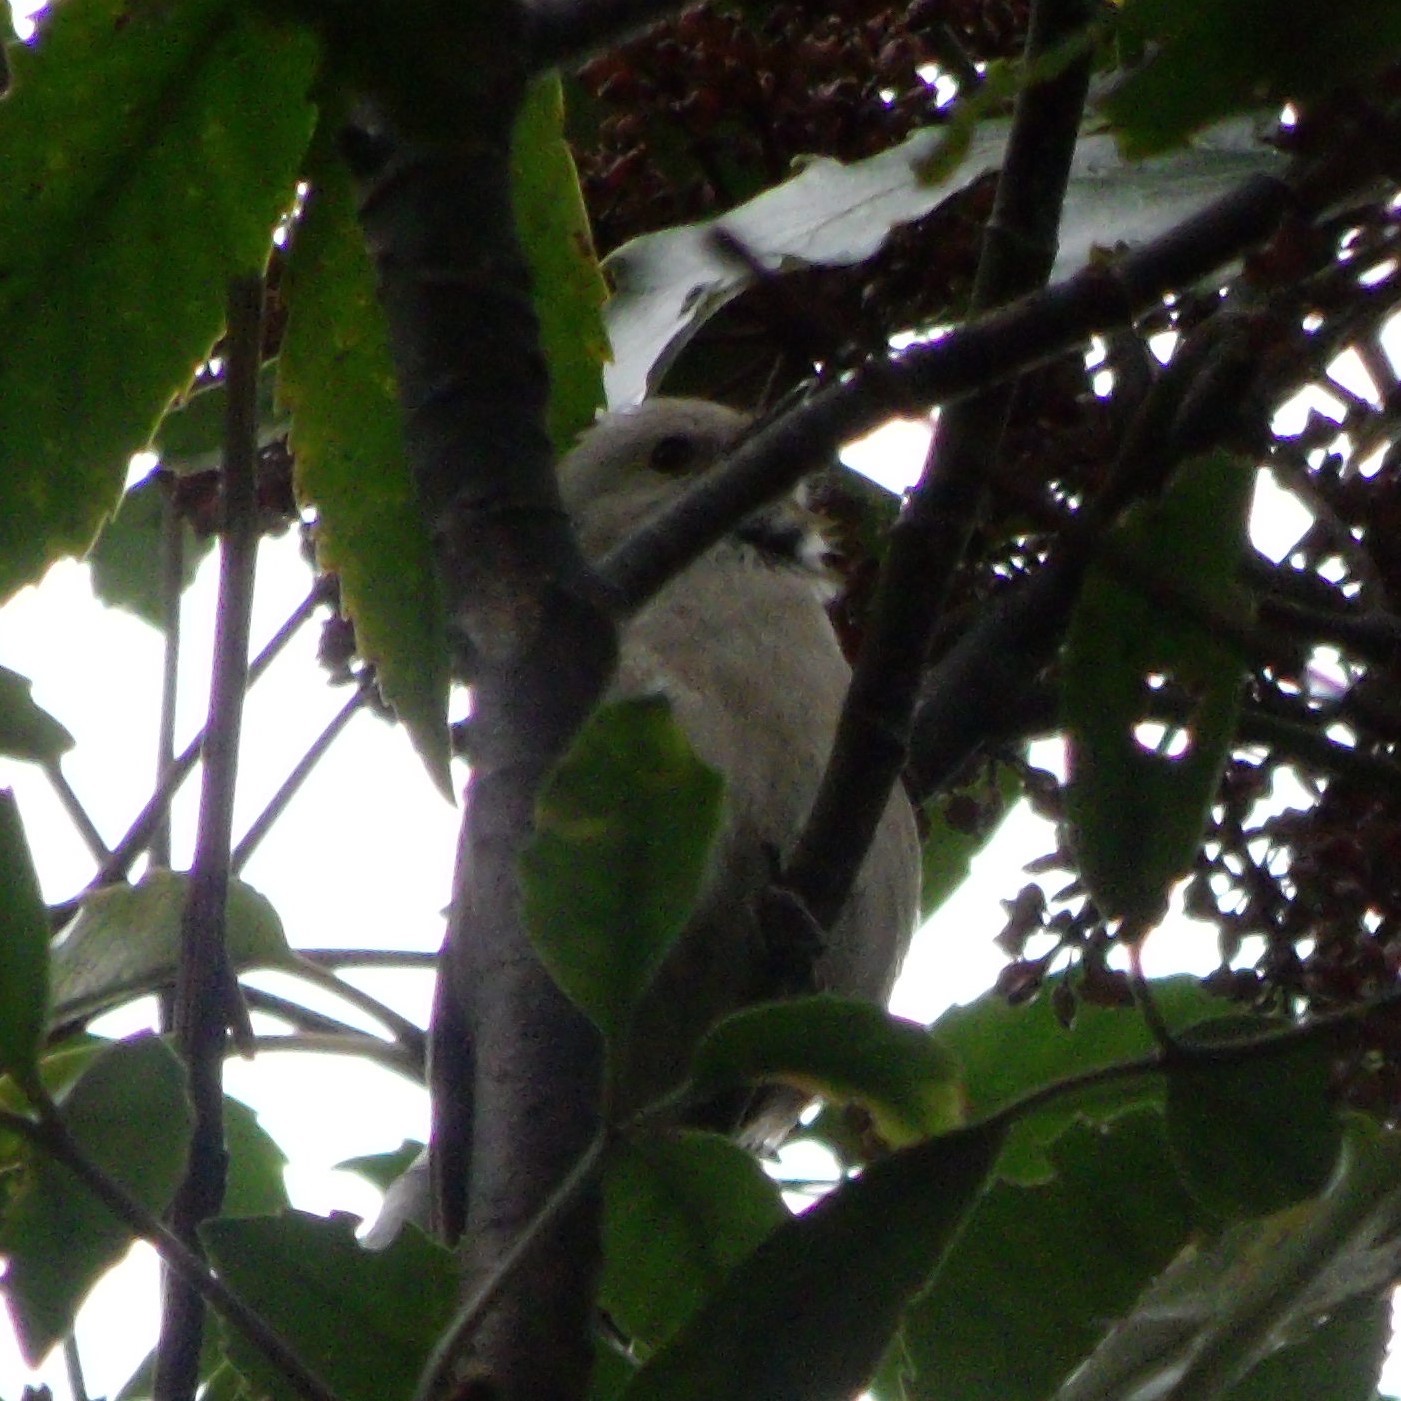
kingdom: Animalia
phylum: Chordata
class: Aves
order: Passeriformes
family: Acanthizidae
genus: Mohoua
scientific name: Mohoua albicilla
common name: Whitehead
